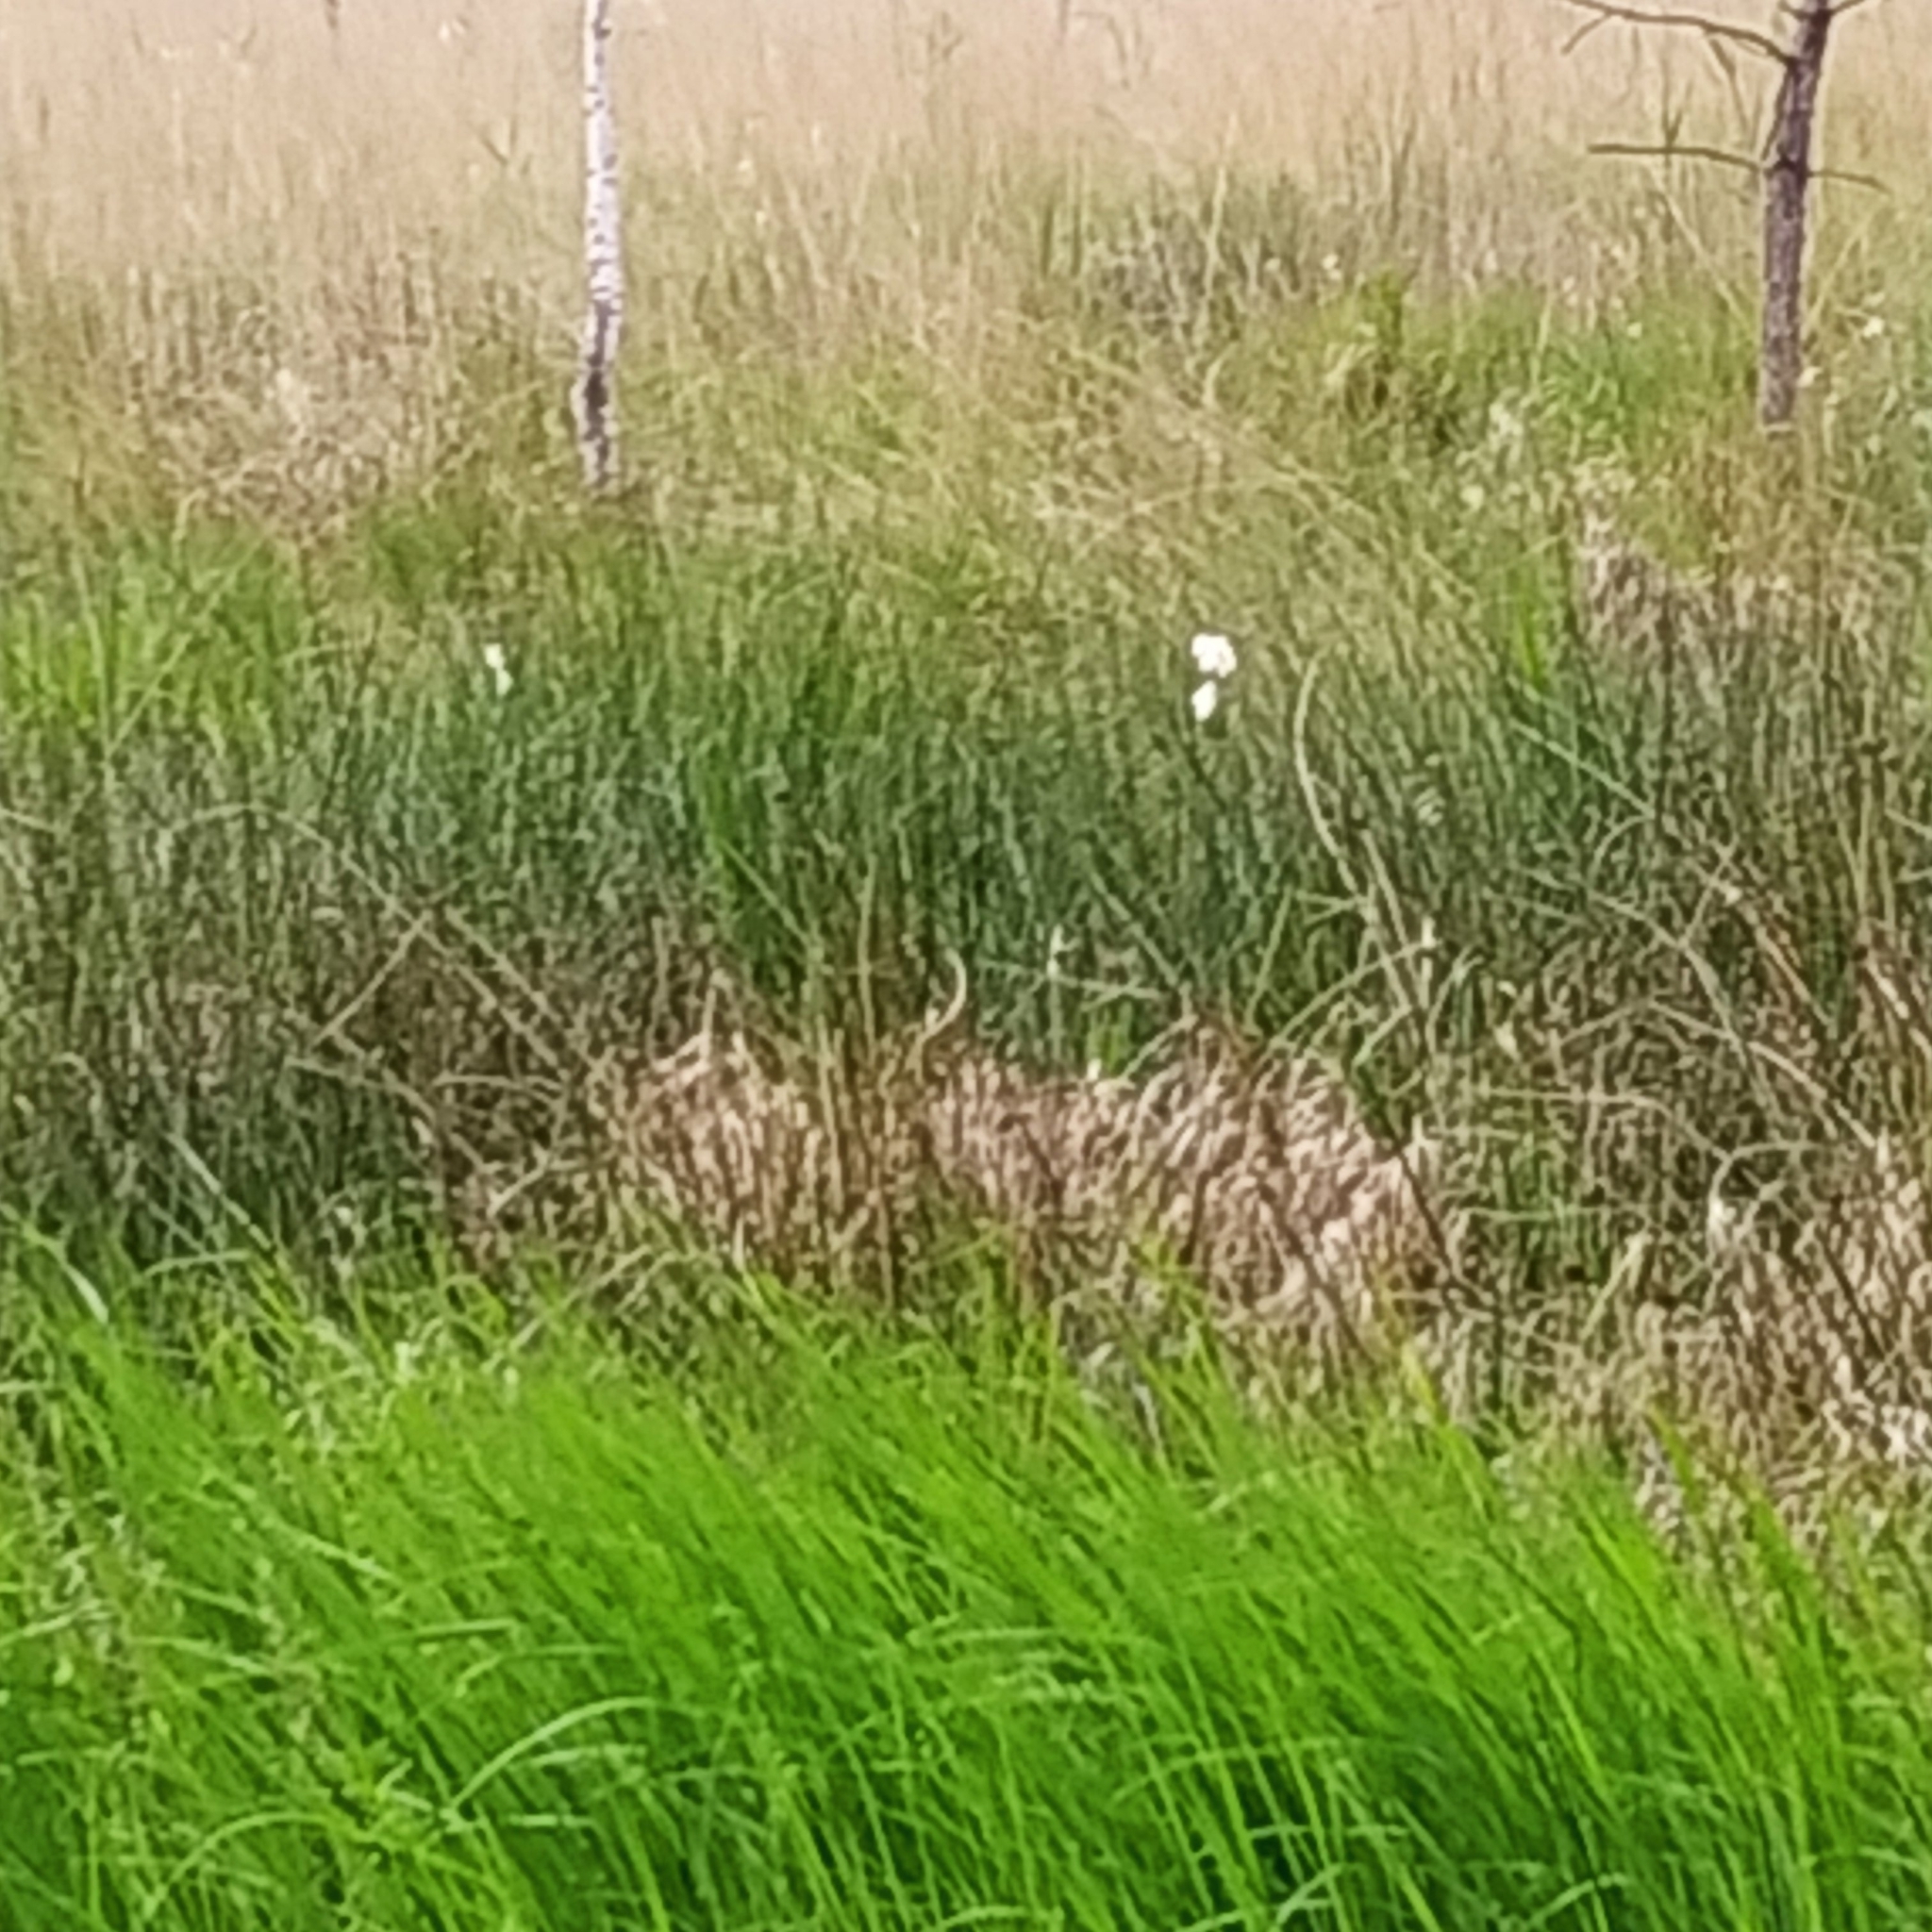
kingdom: Plantae
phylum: Tracheophyta
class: Liliopsida
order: Poales
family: Cyperaceae
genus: Eriophorum
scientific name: Eriophorum angustifolium
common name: Common cottongrass
